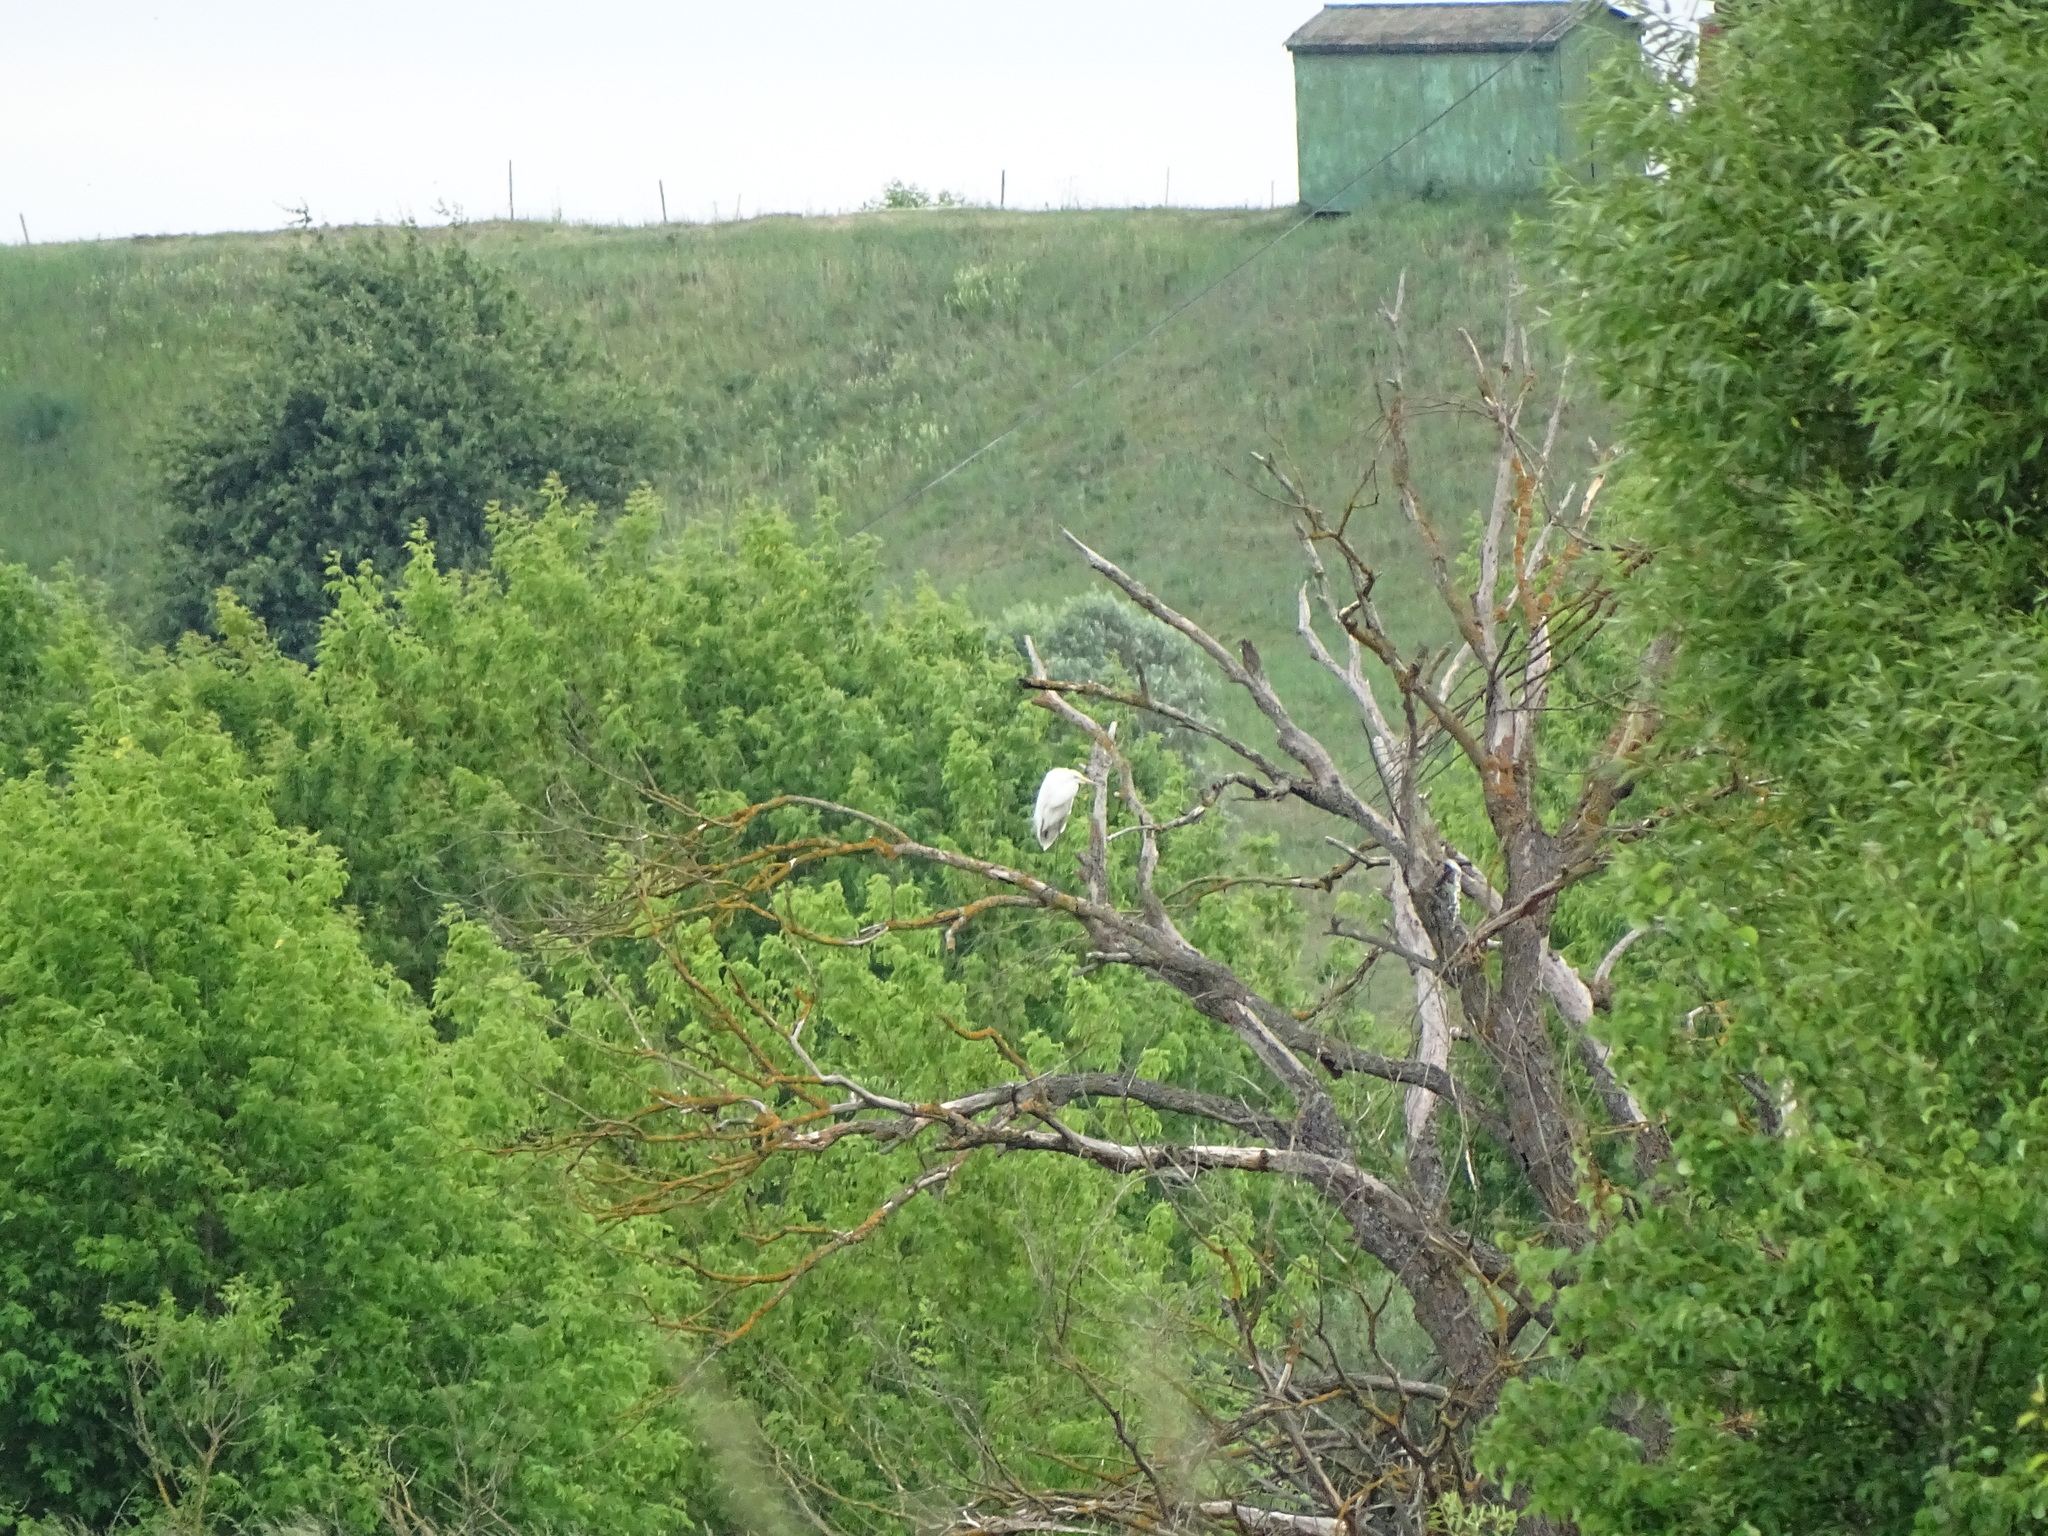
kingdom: Animalia
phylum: Chordata
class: Aves
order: Pelecaniformes
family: Ardeidae
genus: Ardea
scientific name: Ardea alba
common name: Great egret
